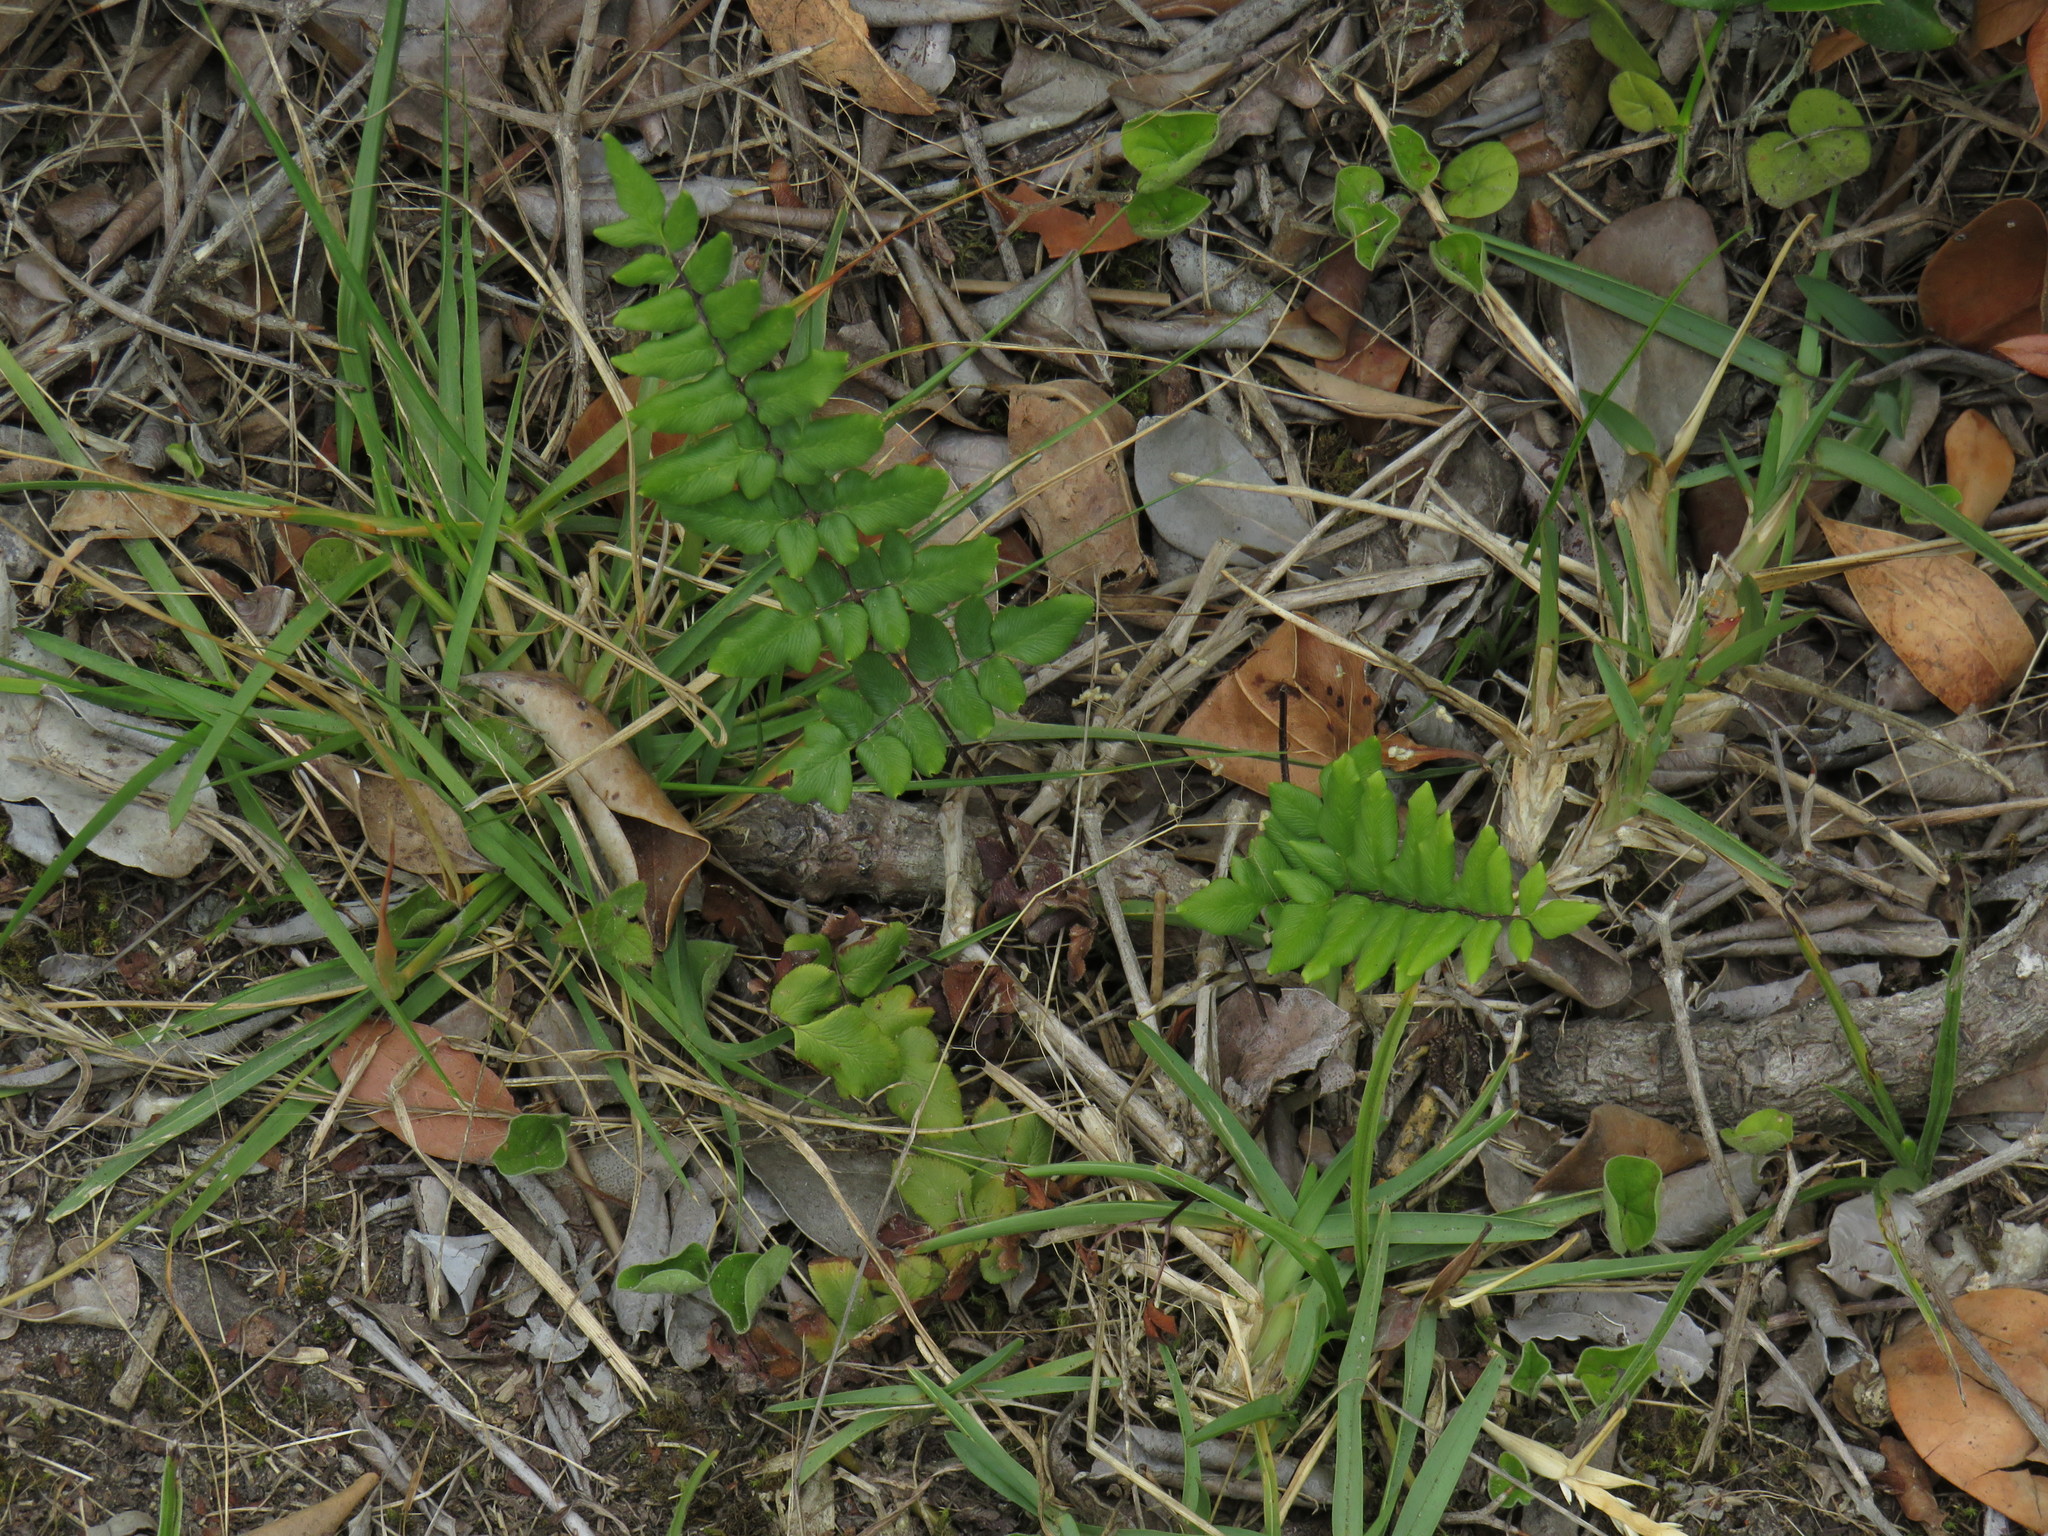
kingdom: Plantae
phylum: Tracheophyta
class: Polypodiopsida
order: Polypodiales
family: Pteridaceae
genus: Cheilanthes
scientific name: Cheilanthes viridis
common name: Green cliffbrake
